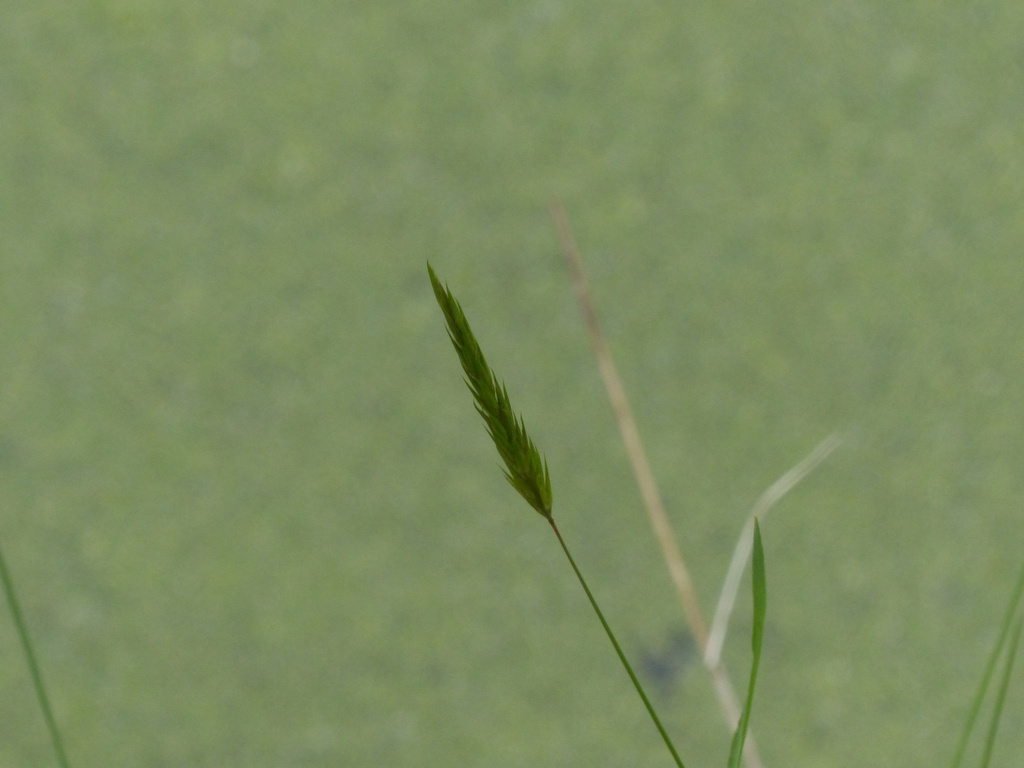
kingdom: Plantae
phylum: Tracheophyta
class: Liliopsida
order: Poales
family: Poaceae
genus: Anthoxanthum
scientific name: Anthoxanthum odoratum
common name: Sweet vernalgrass
